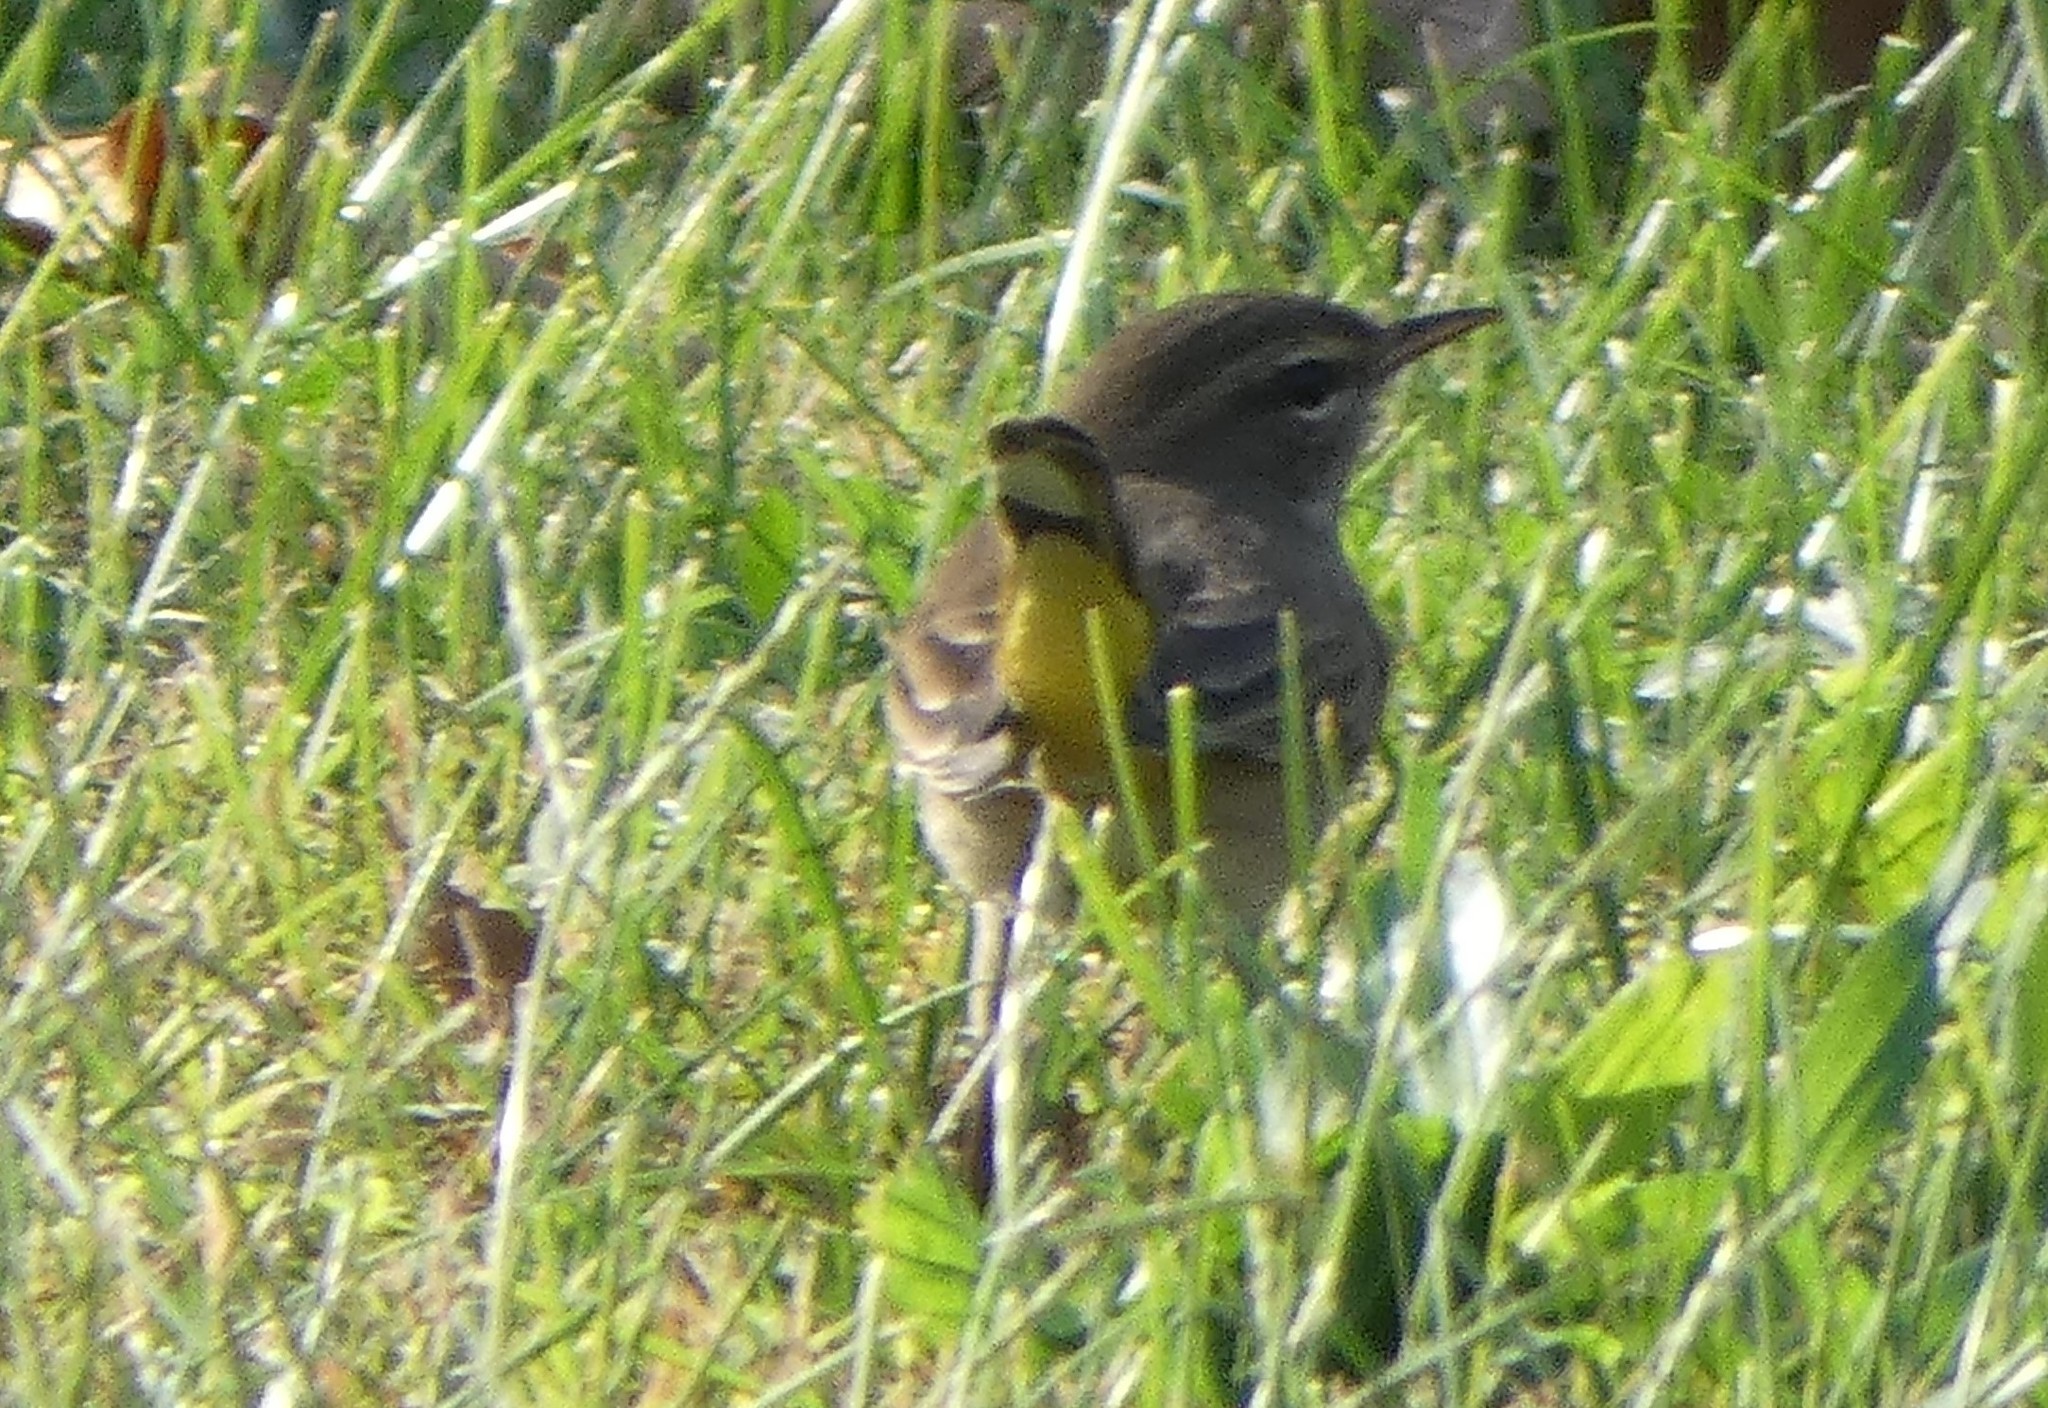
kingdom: Animalia
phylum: Chordata
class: Aves
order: Passeriformes
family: Parulidae
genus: Setophaga
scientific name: Setophaga palmarum
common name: Palm warbler
